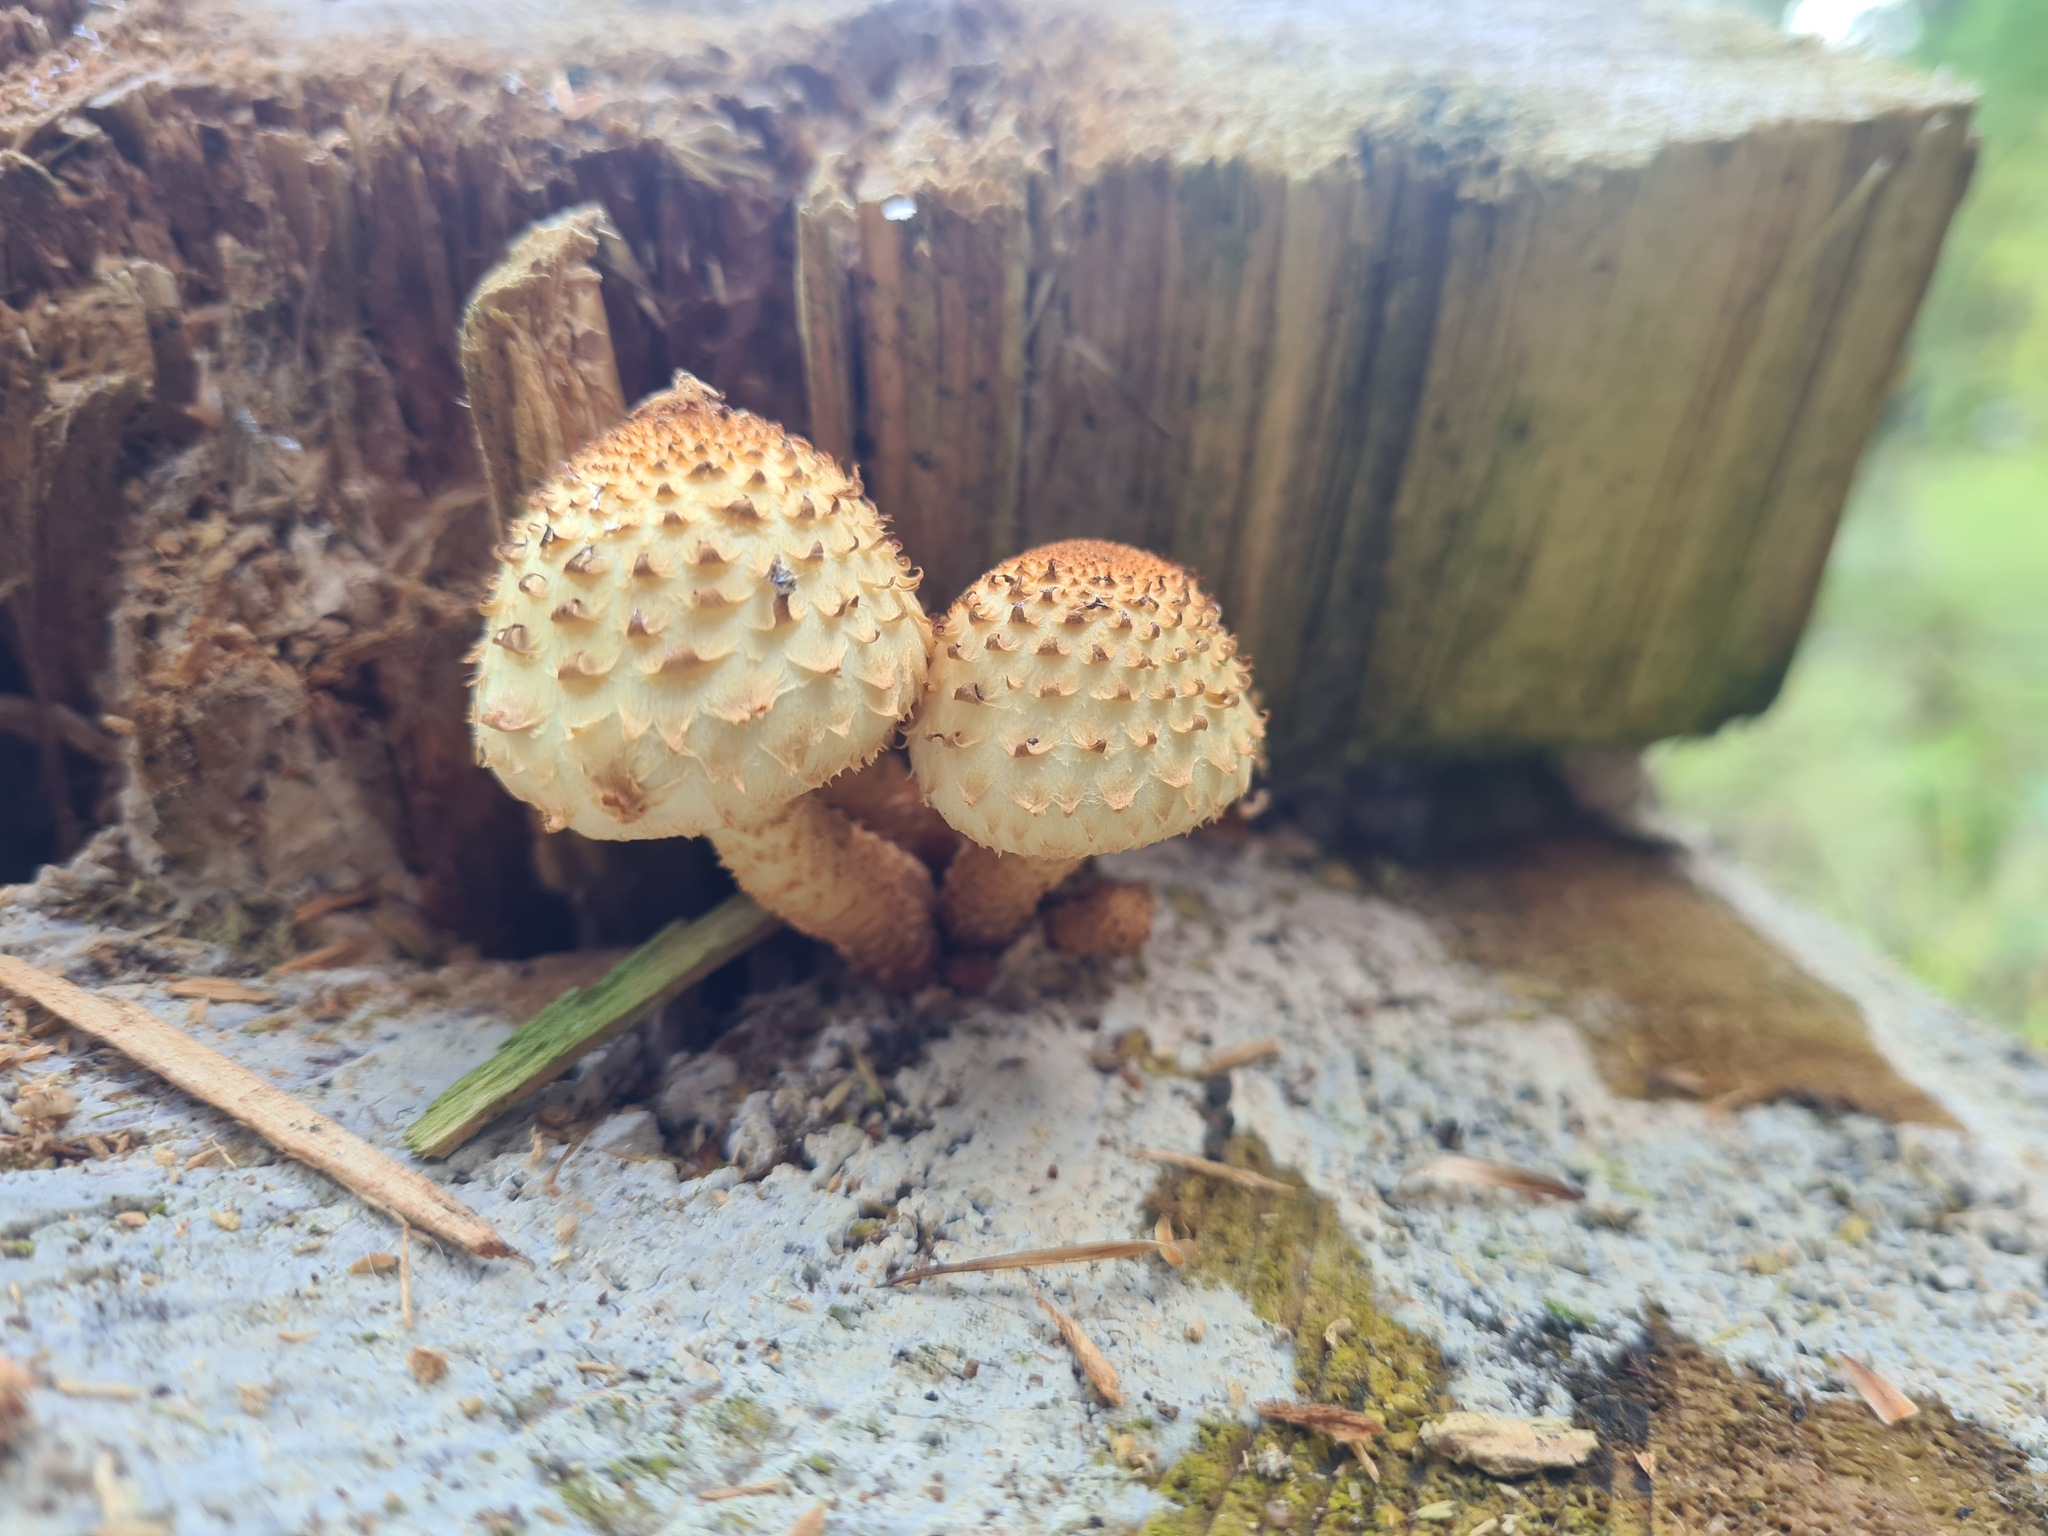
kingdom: Fungi
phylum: Basidiomycota
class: Agaricomycetes
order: Agaricales
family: Strophariaceae
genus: Pholiota
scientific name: Pholiota squarrosoides
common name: Sharp-scaly pholiota
